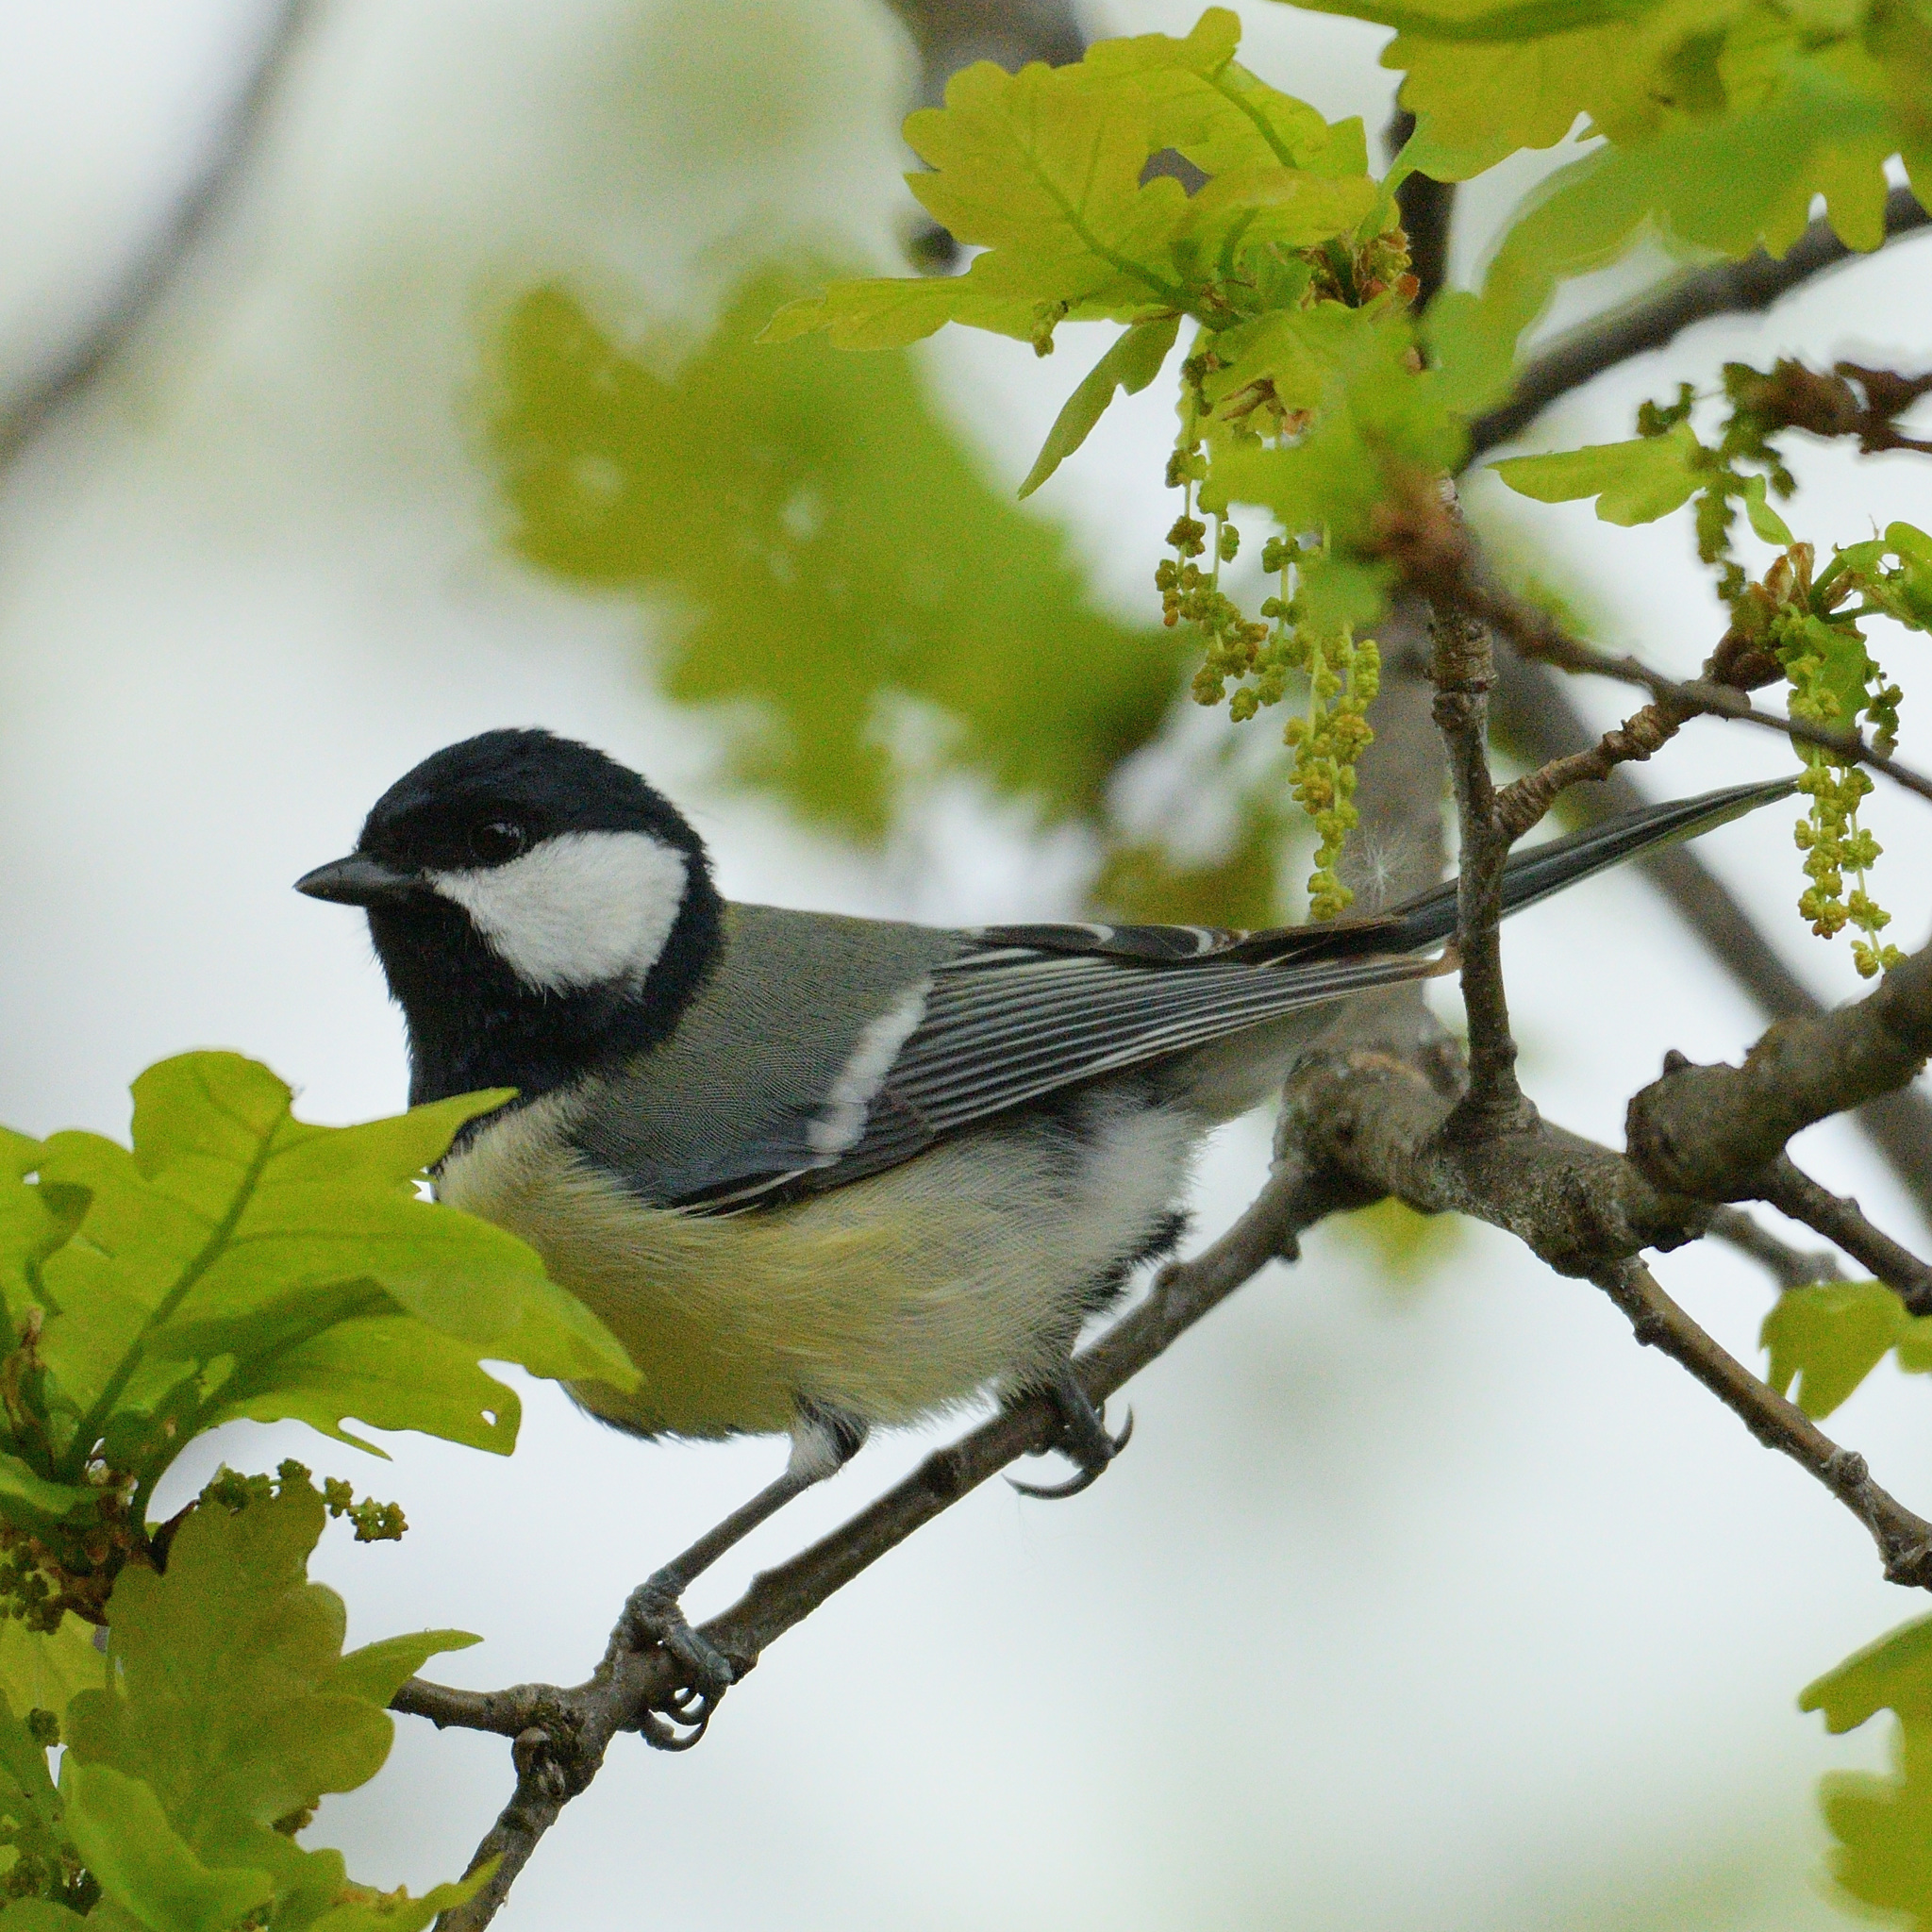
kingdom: Animalia
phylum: Chordata
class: Aves
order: Passeriformes
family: Paridae
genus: Parus
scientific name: Parus major
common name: Great tit
